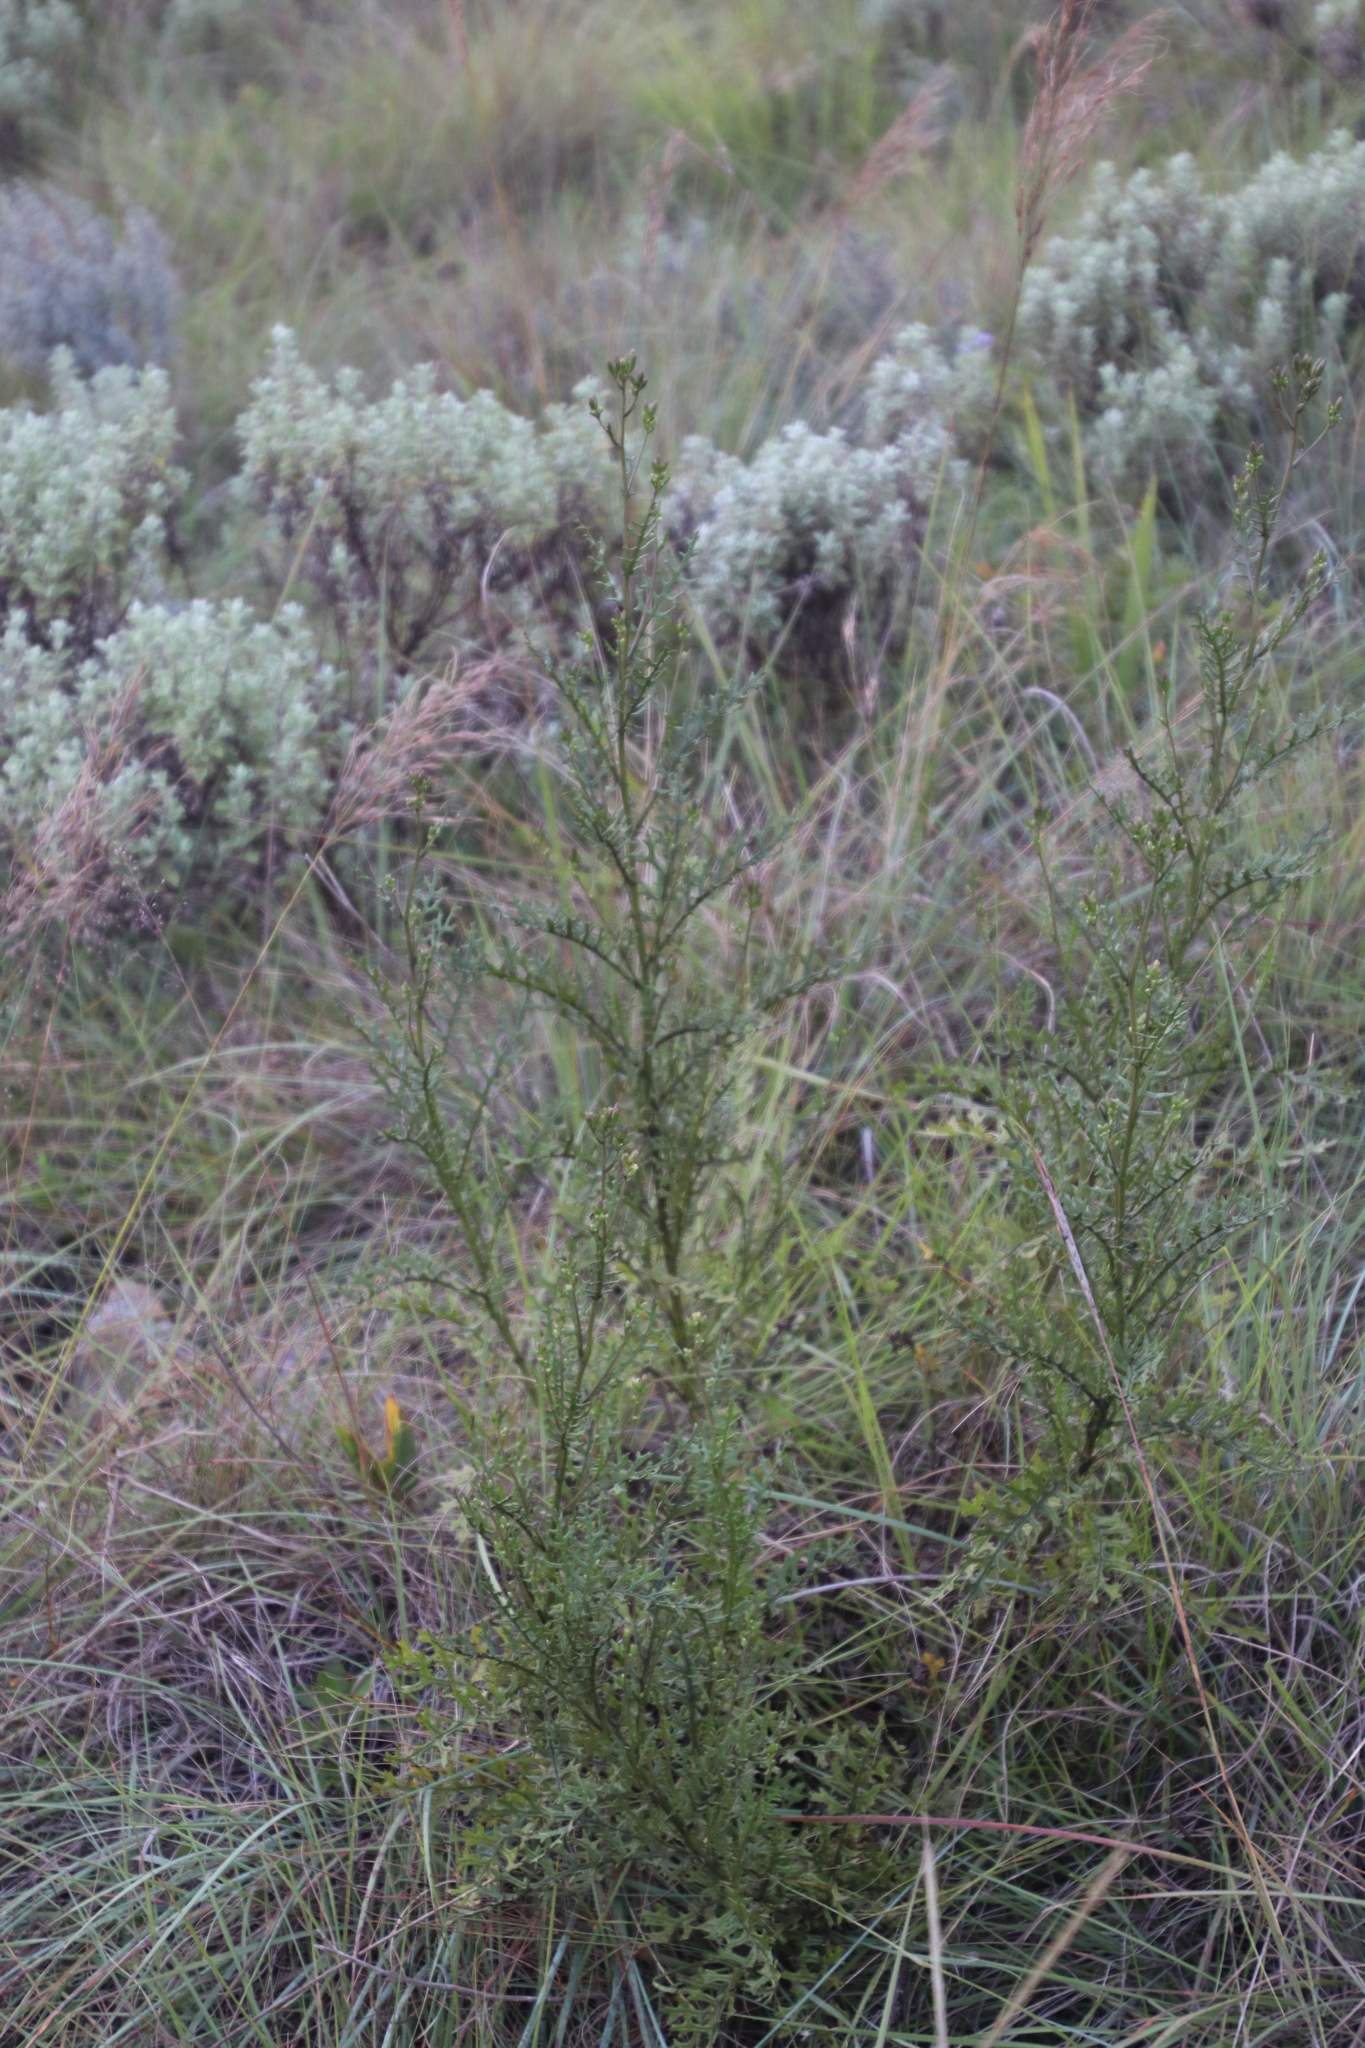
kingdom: Plantae
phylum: Tracheophyta
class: Magnoliopsida
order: Asterales
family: Asteraceae
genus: Senecio
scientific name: Senecio rhyncholaenus
